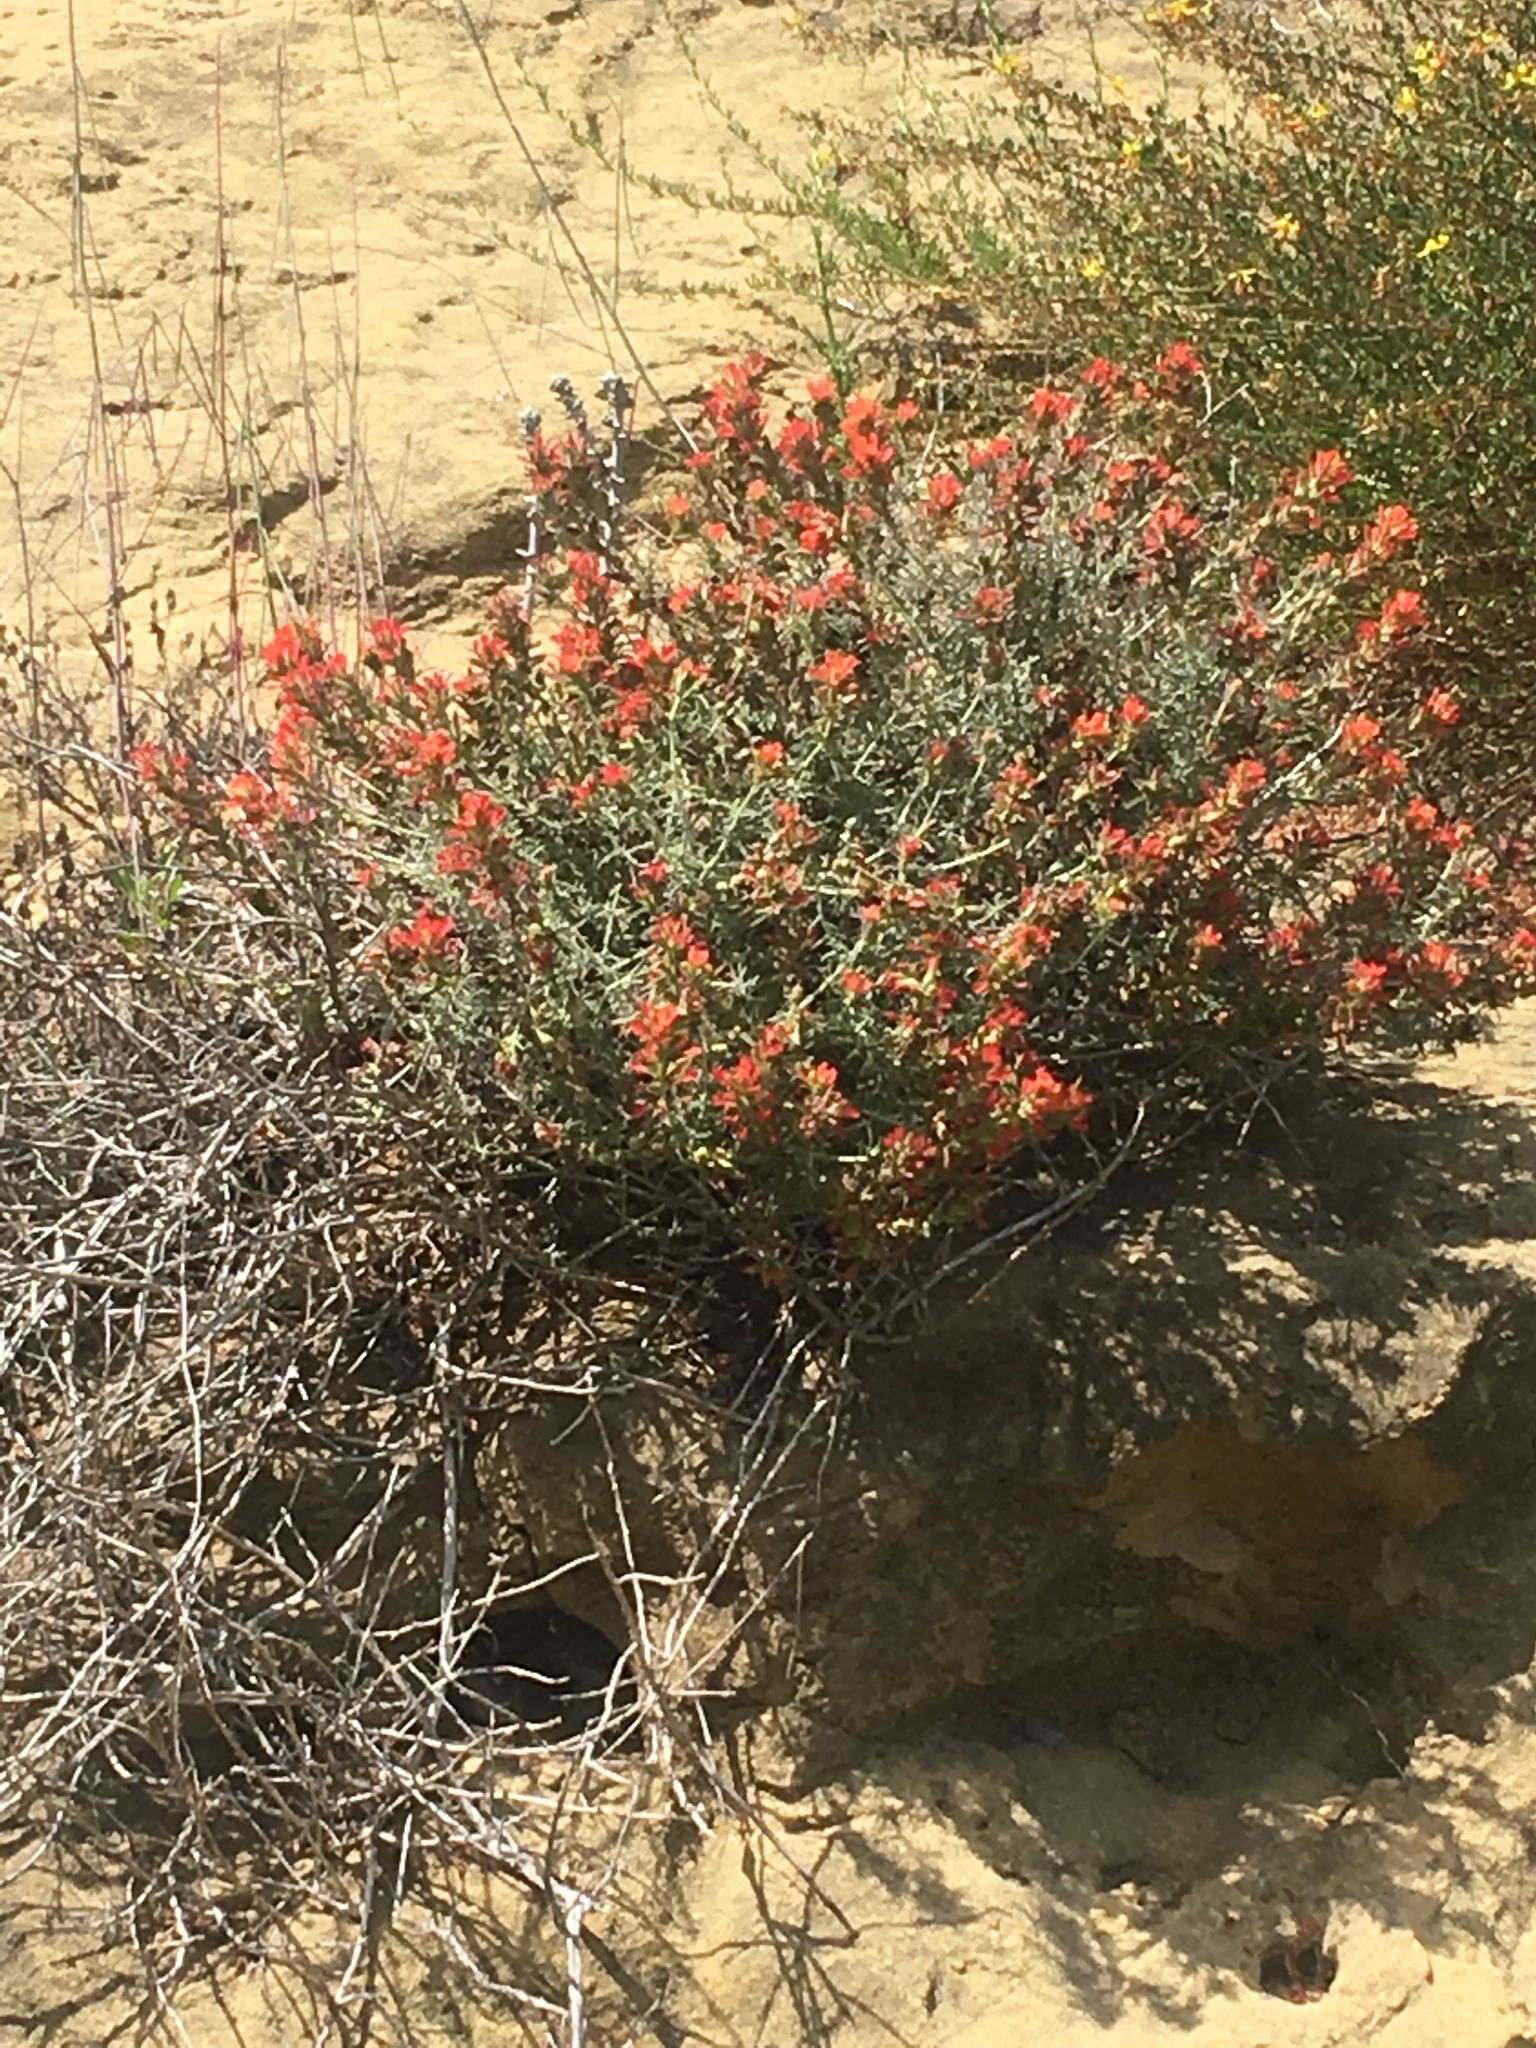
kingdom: Plantae
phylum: Tracheophyta
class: Magnoliopsida
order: Lamiales
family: Orobanchaceae
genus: Castilleja
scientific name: Castilleja foliolosa
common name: Woolly indian paintbrush
